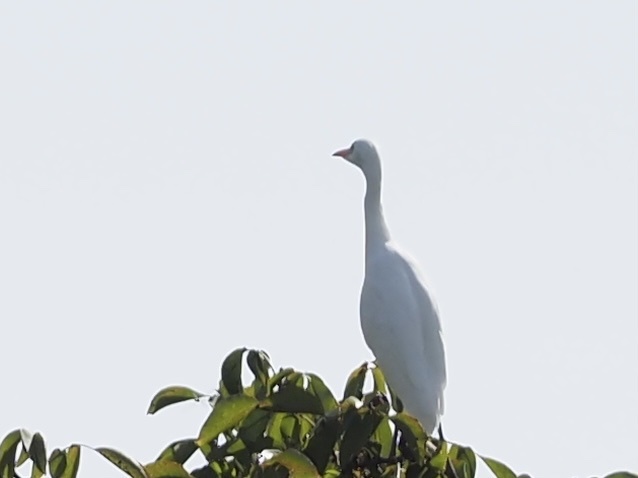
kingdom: Animalia
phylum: Chordata
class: Aves
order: Pelecaniformes
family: Ardeidae
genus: Bubulcus
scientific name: Bubulcus ibis
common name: Cattle egret
